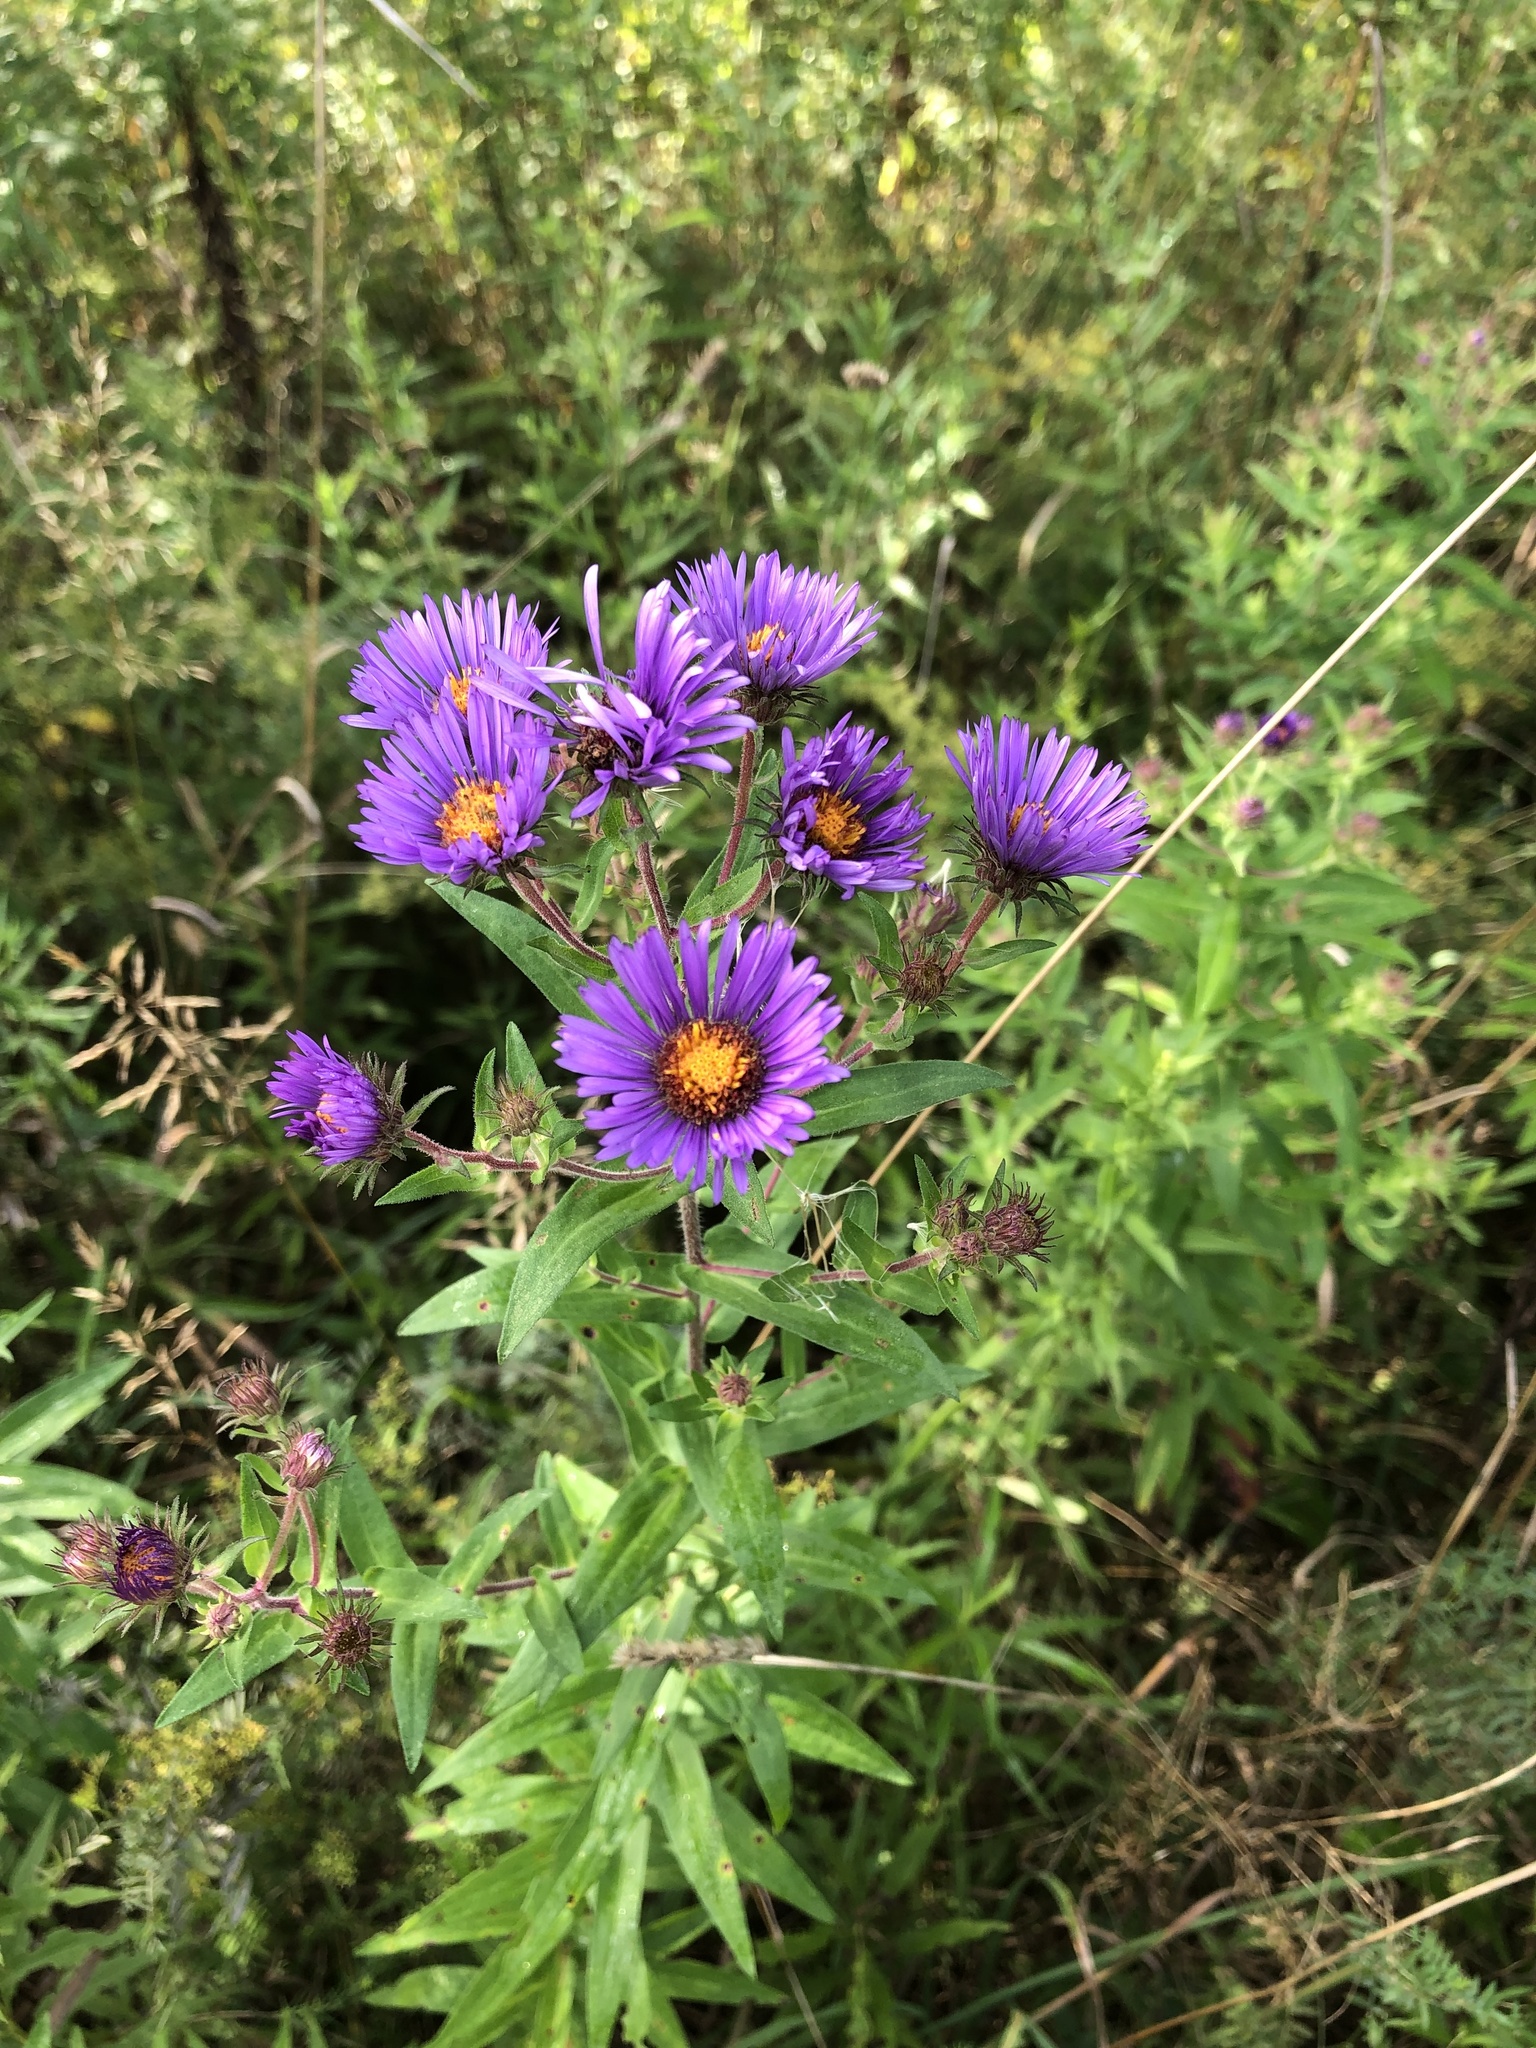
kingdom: Plantae
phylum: Tracheophyta
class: Magnoliopsida
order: Asterales
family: Asteraceae
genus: Symphyotrichum
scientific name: Symphyotrichum novae-angliae
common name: Michaelmas daisy
